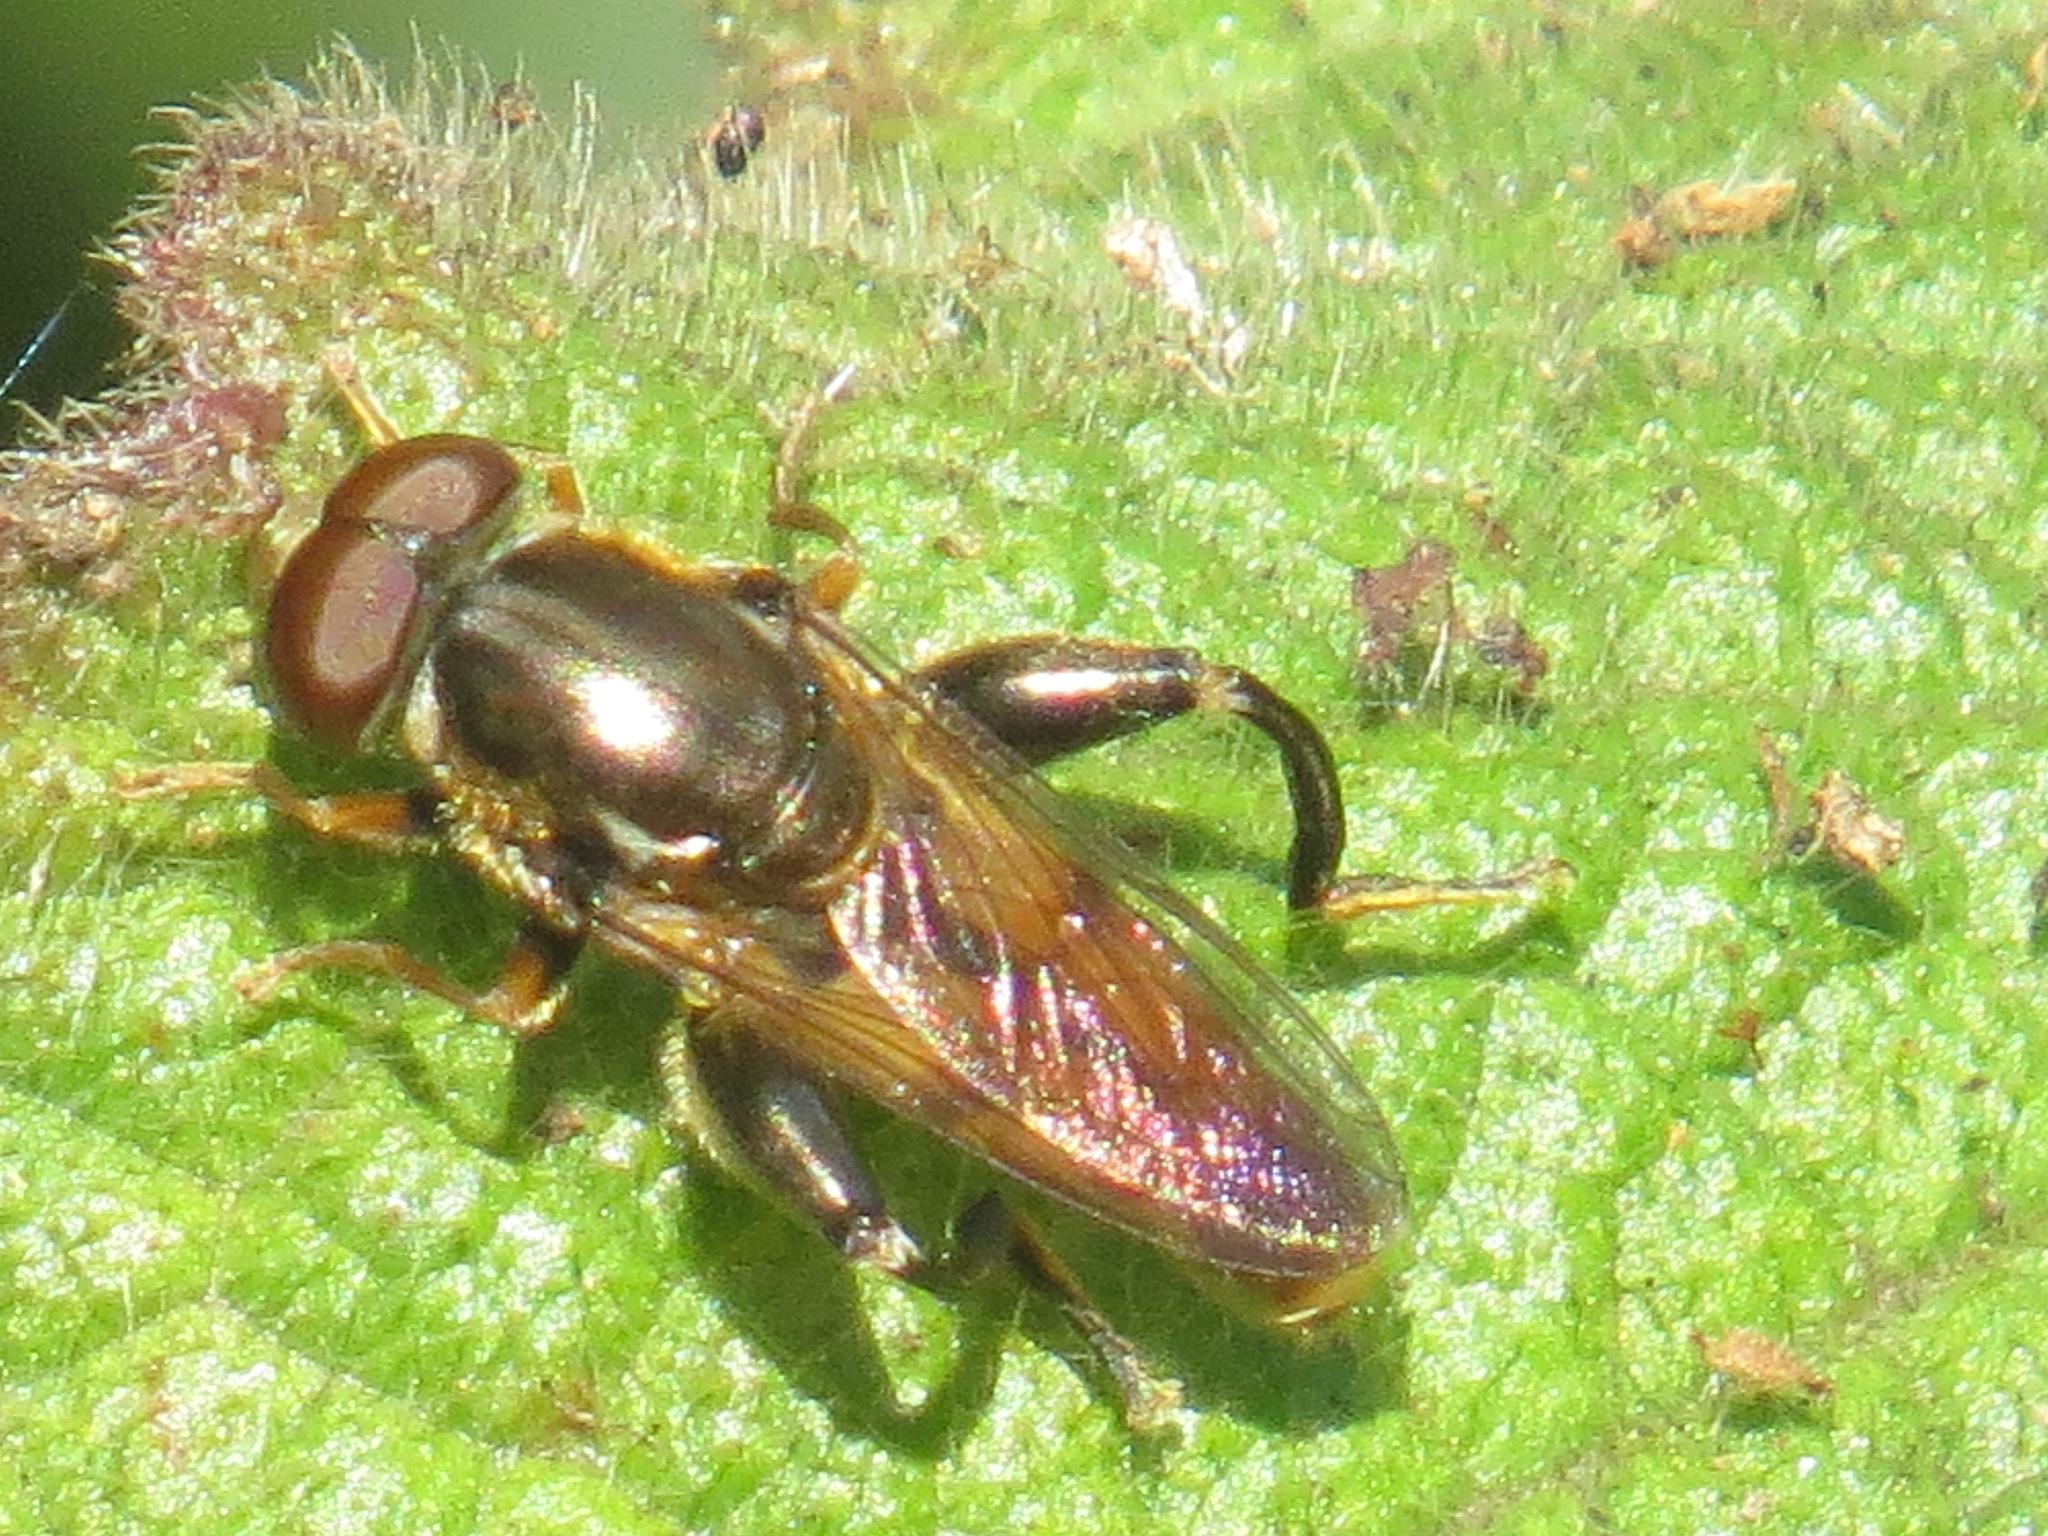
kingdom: Animalia
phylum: Arthropoda
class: Insecta
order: Diptera
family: Syrphidae
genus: Tropidia
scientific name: Tropidia quadrata
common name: Common thick-legged fly
